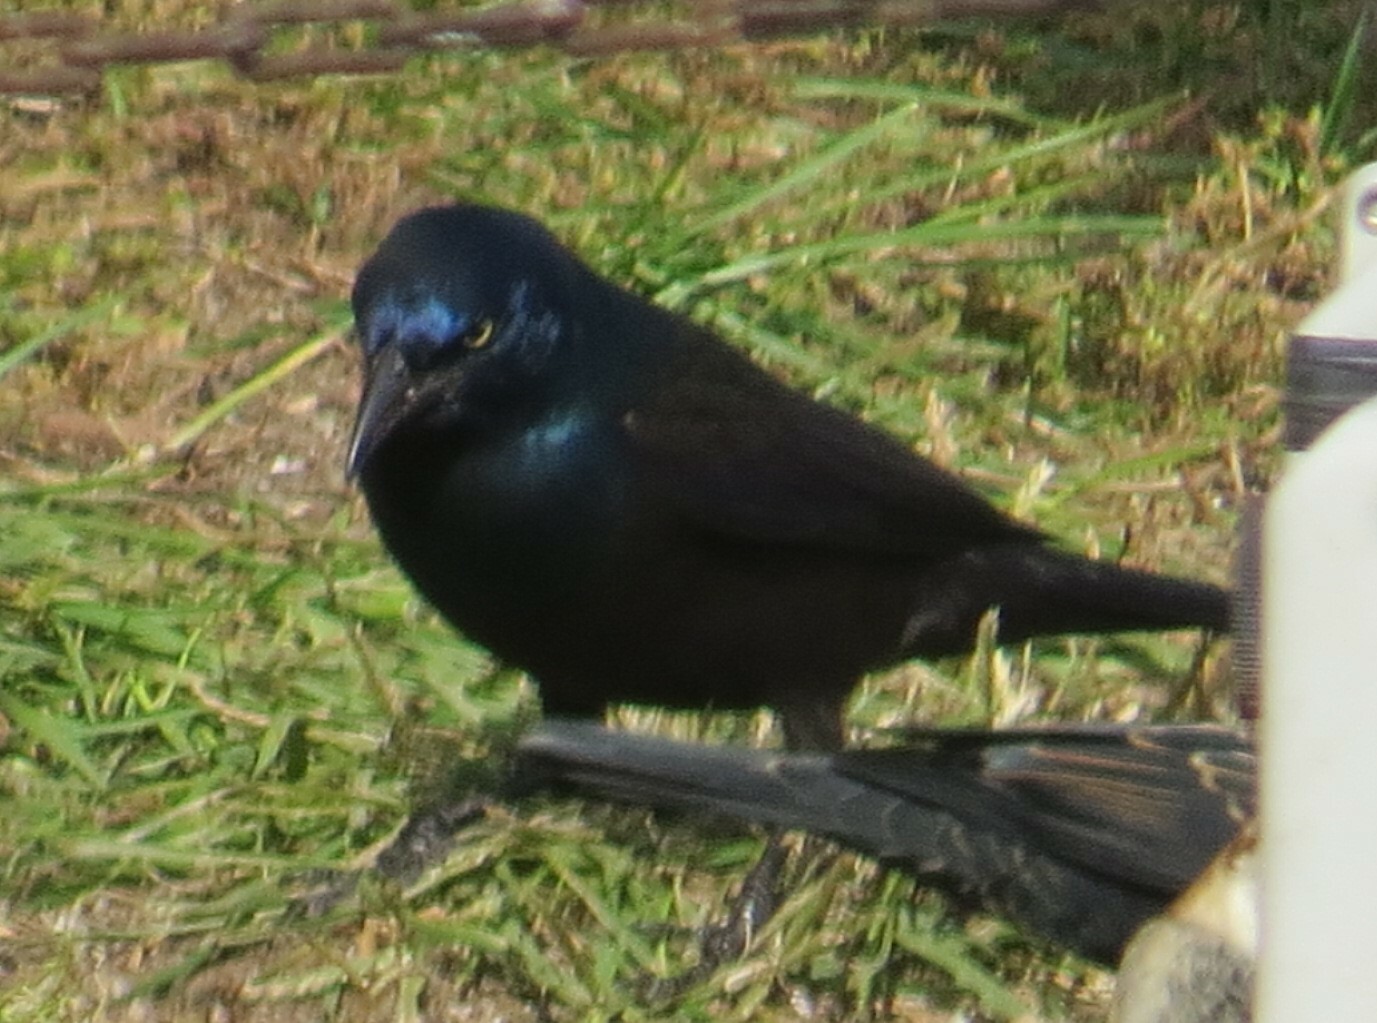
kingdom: Animalia
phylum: Chordata
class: Aves
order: Passeriformes
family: Icteridae
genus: Quiscalus
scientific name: Quiscalus quiscula
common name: Common grackle
